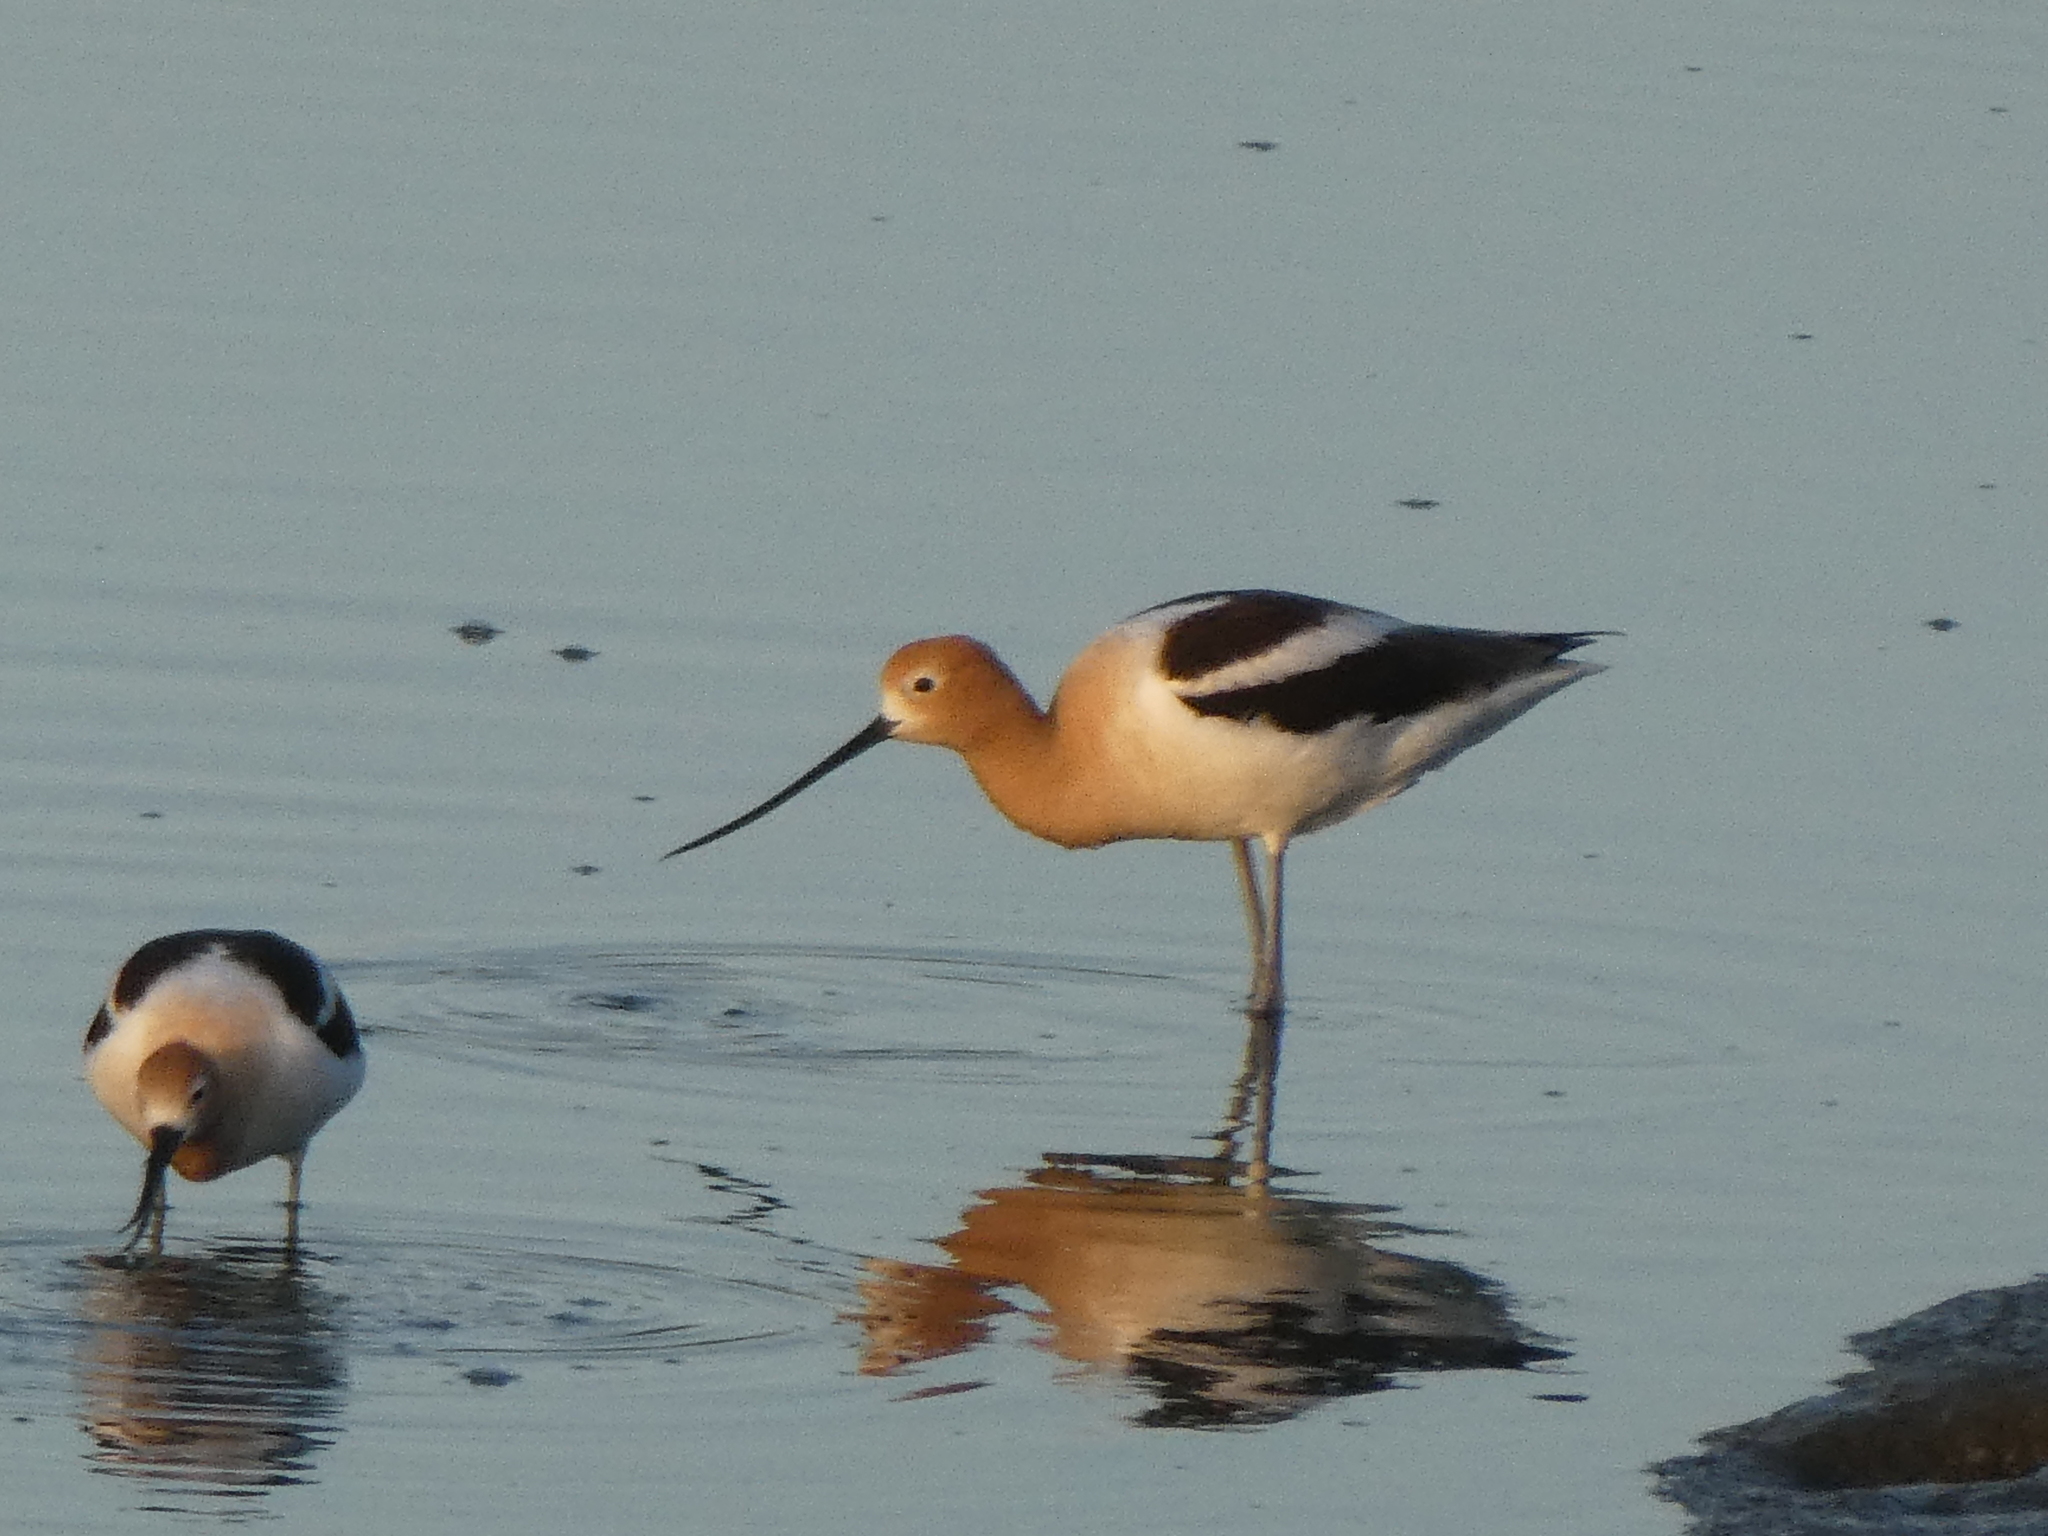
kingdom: Animalia
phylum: Chordata
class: Aves
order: Charadriiformes
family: Recurvirostridae
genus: Recurvirostra
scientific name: Recurvirostra americana
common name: American avocet
